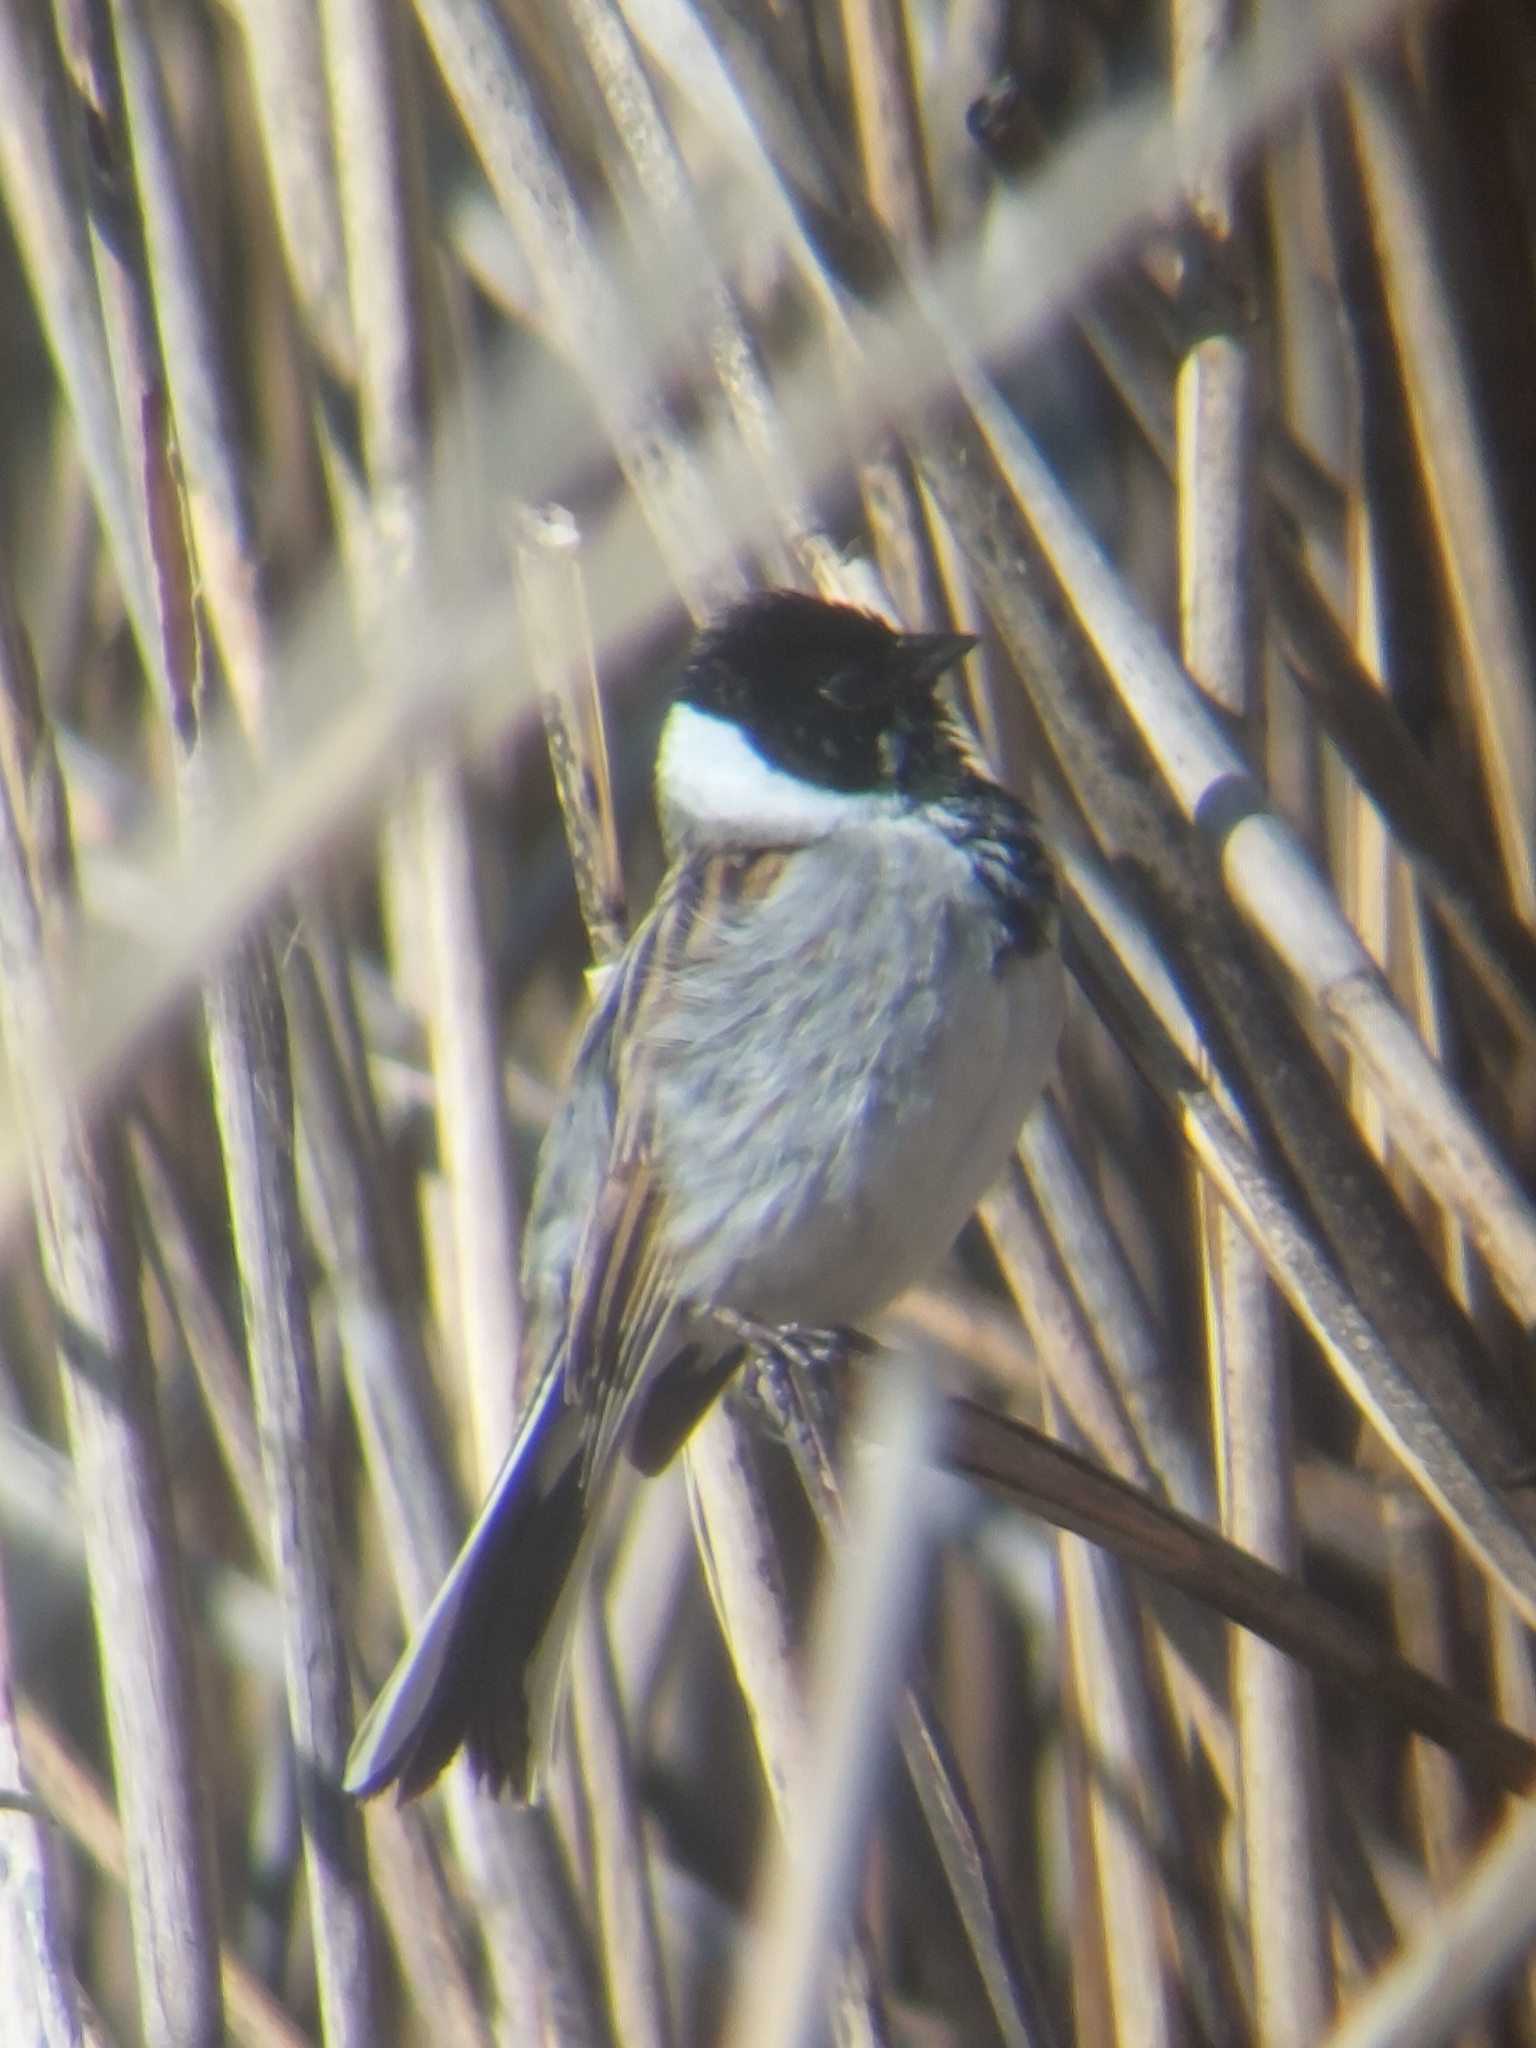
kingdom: Animalia
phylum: Chordata
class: Aves
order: Passeriformes
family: Emberizidae
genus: Emberiza
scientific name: Emberiza schoeniclus
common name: Reed bunting
